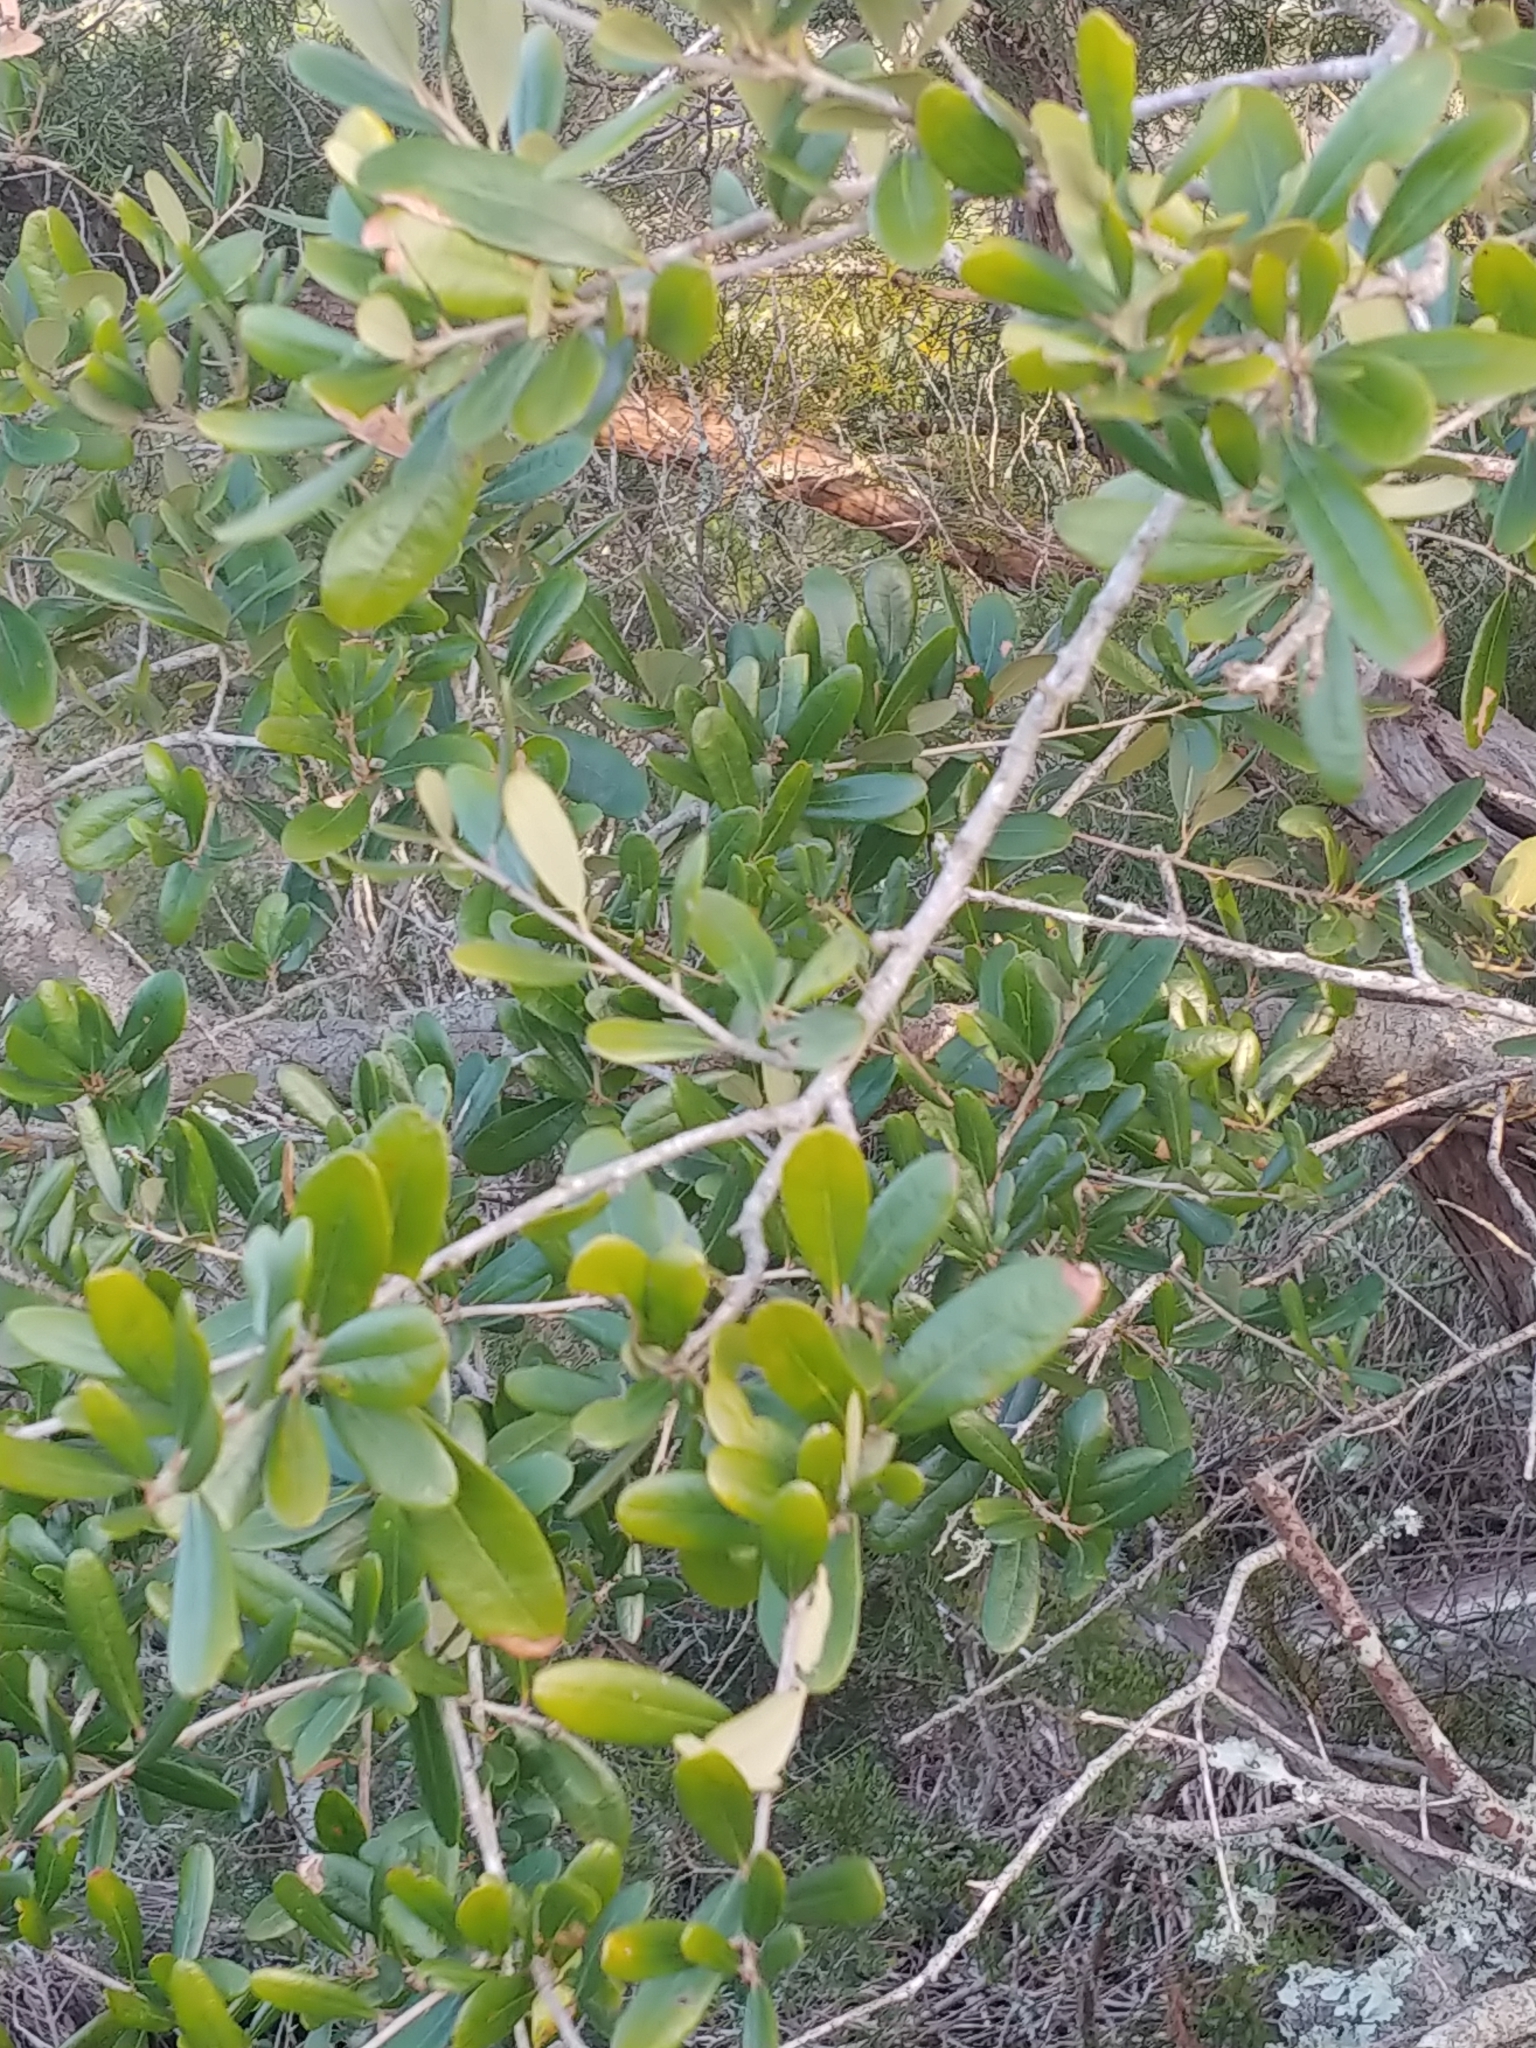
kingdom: Plantae
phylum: Tracheophyta
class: Magnoliopsida
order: Fagales
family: Fagaceae
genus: Quercus
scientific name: Quercus virginiana
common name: Southern live oak
